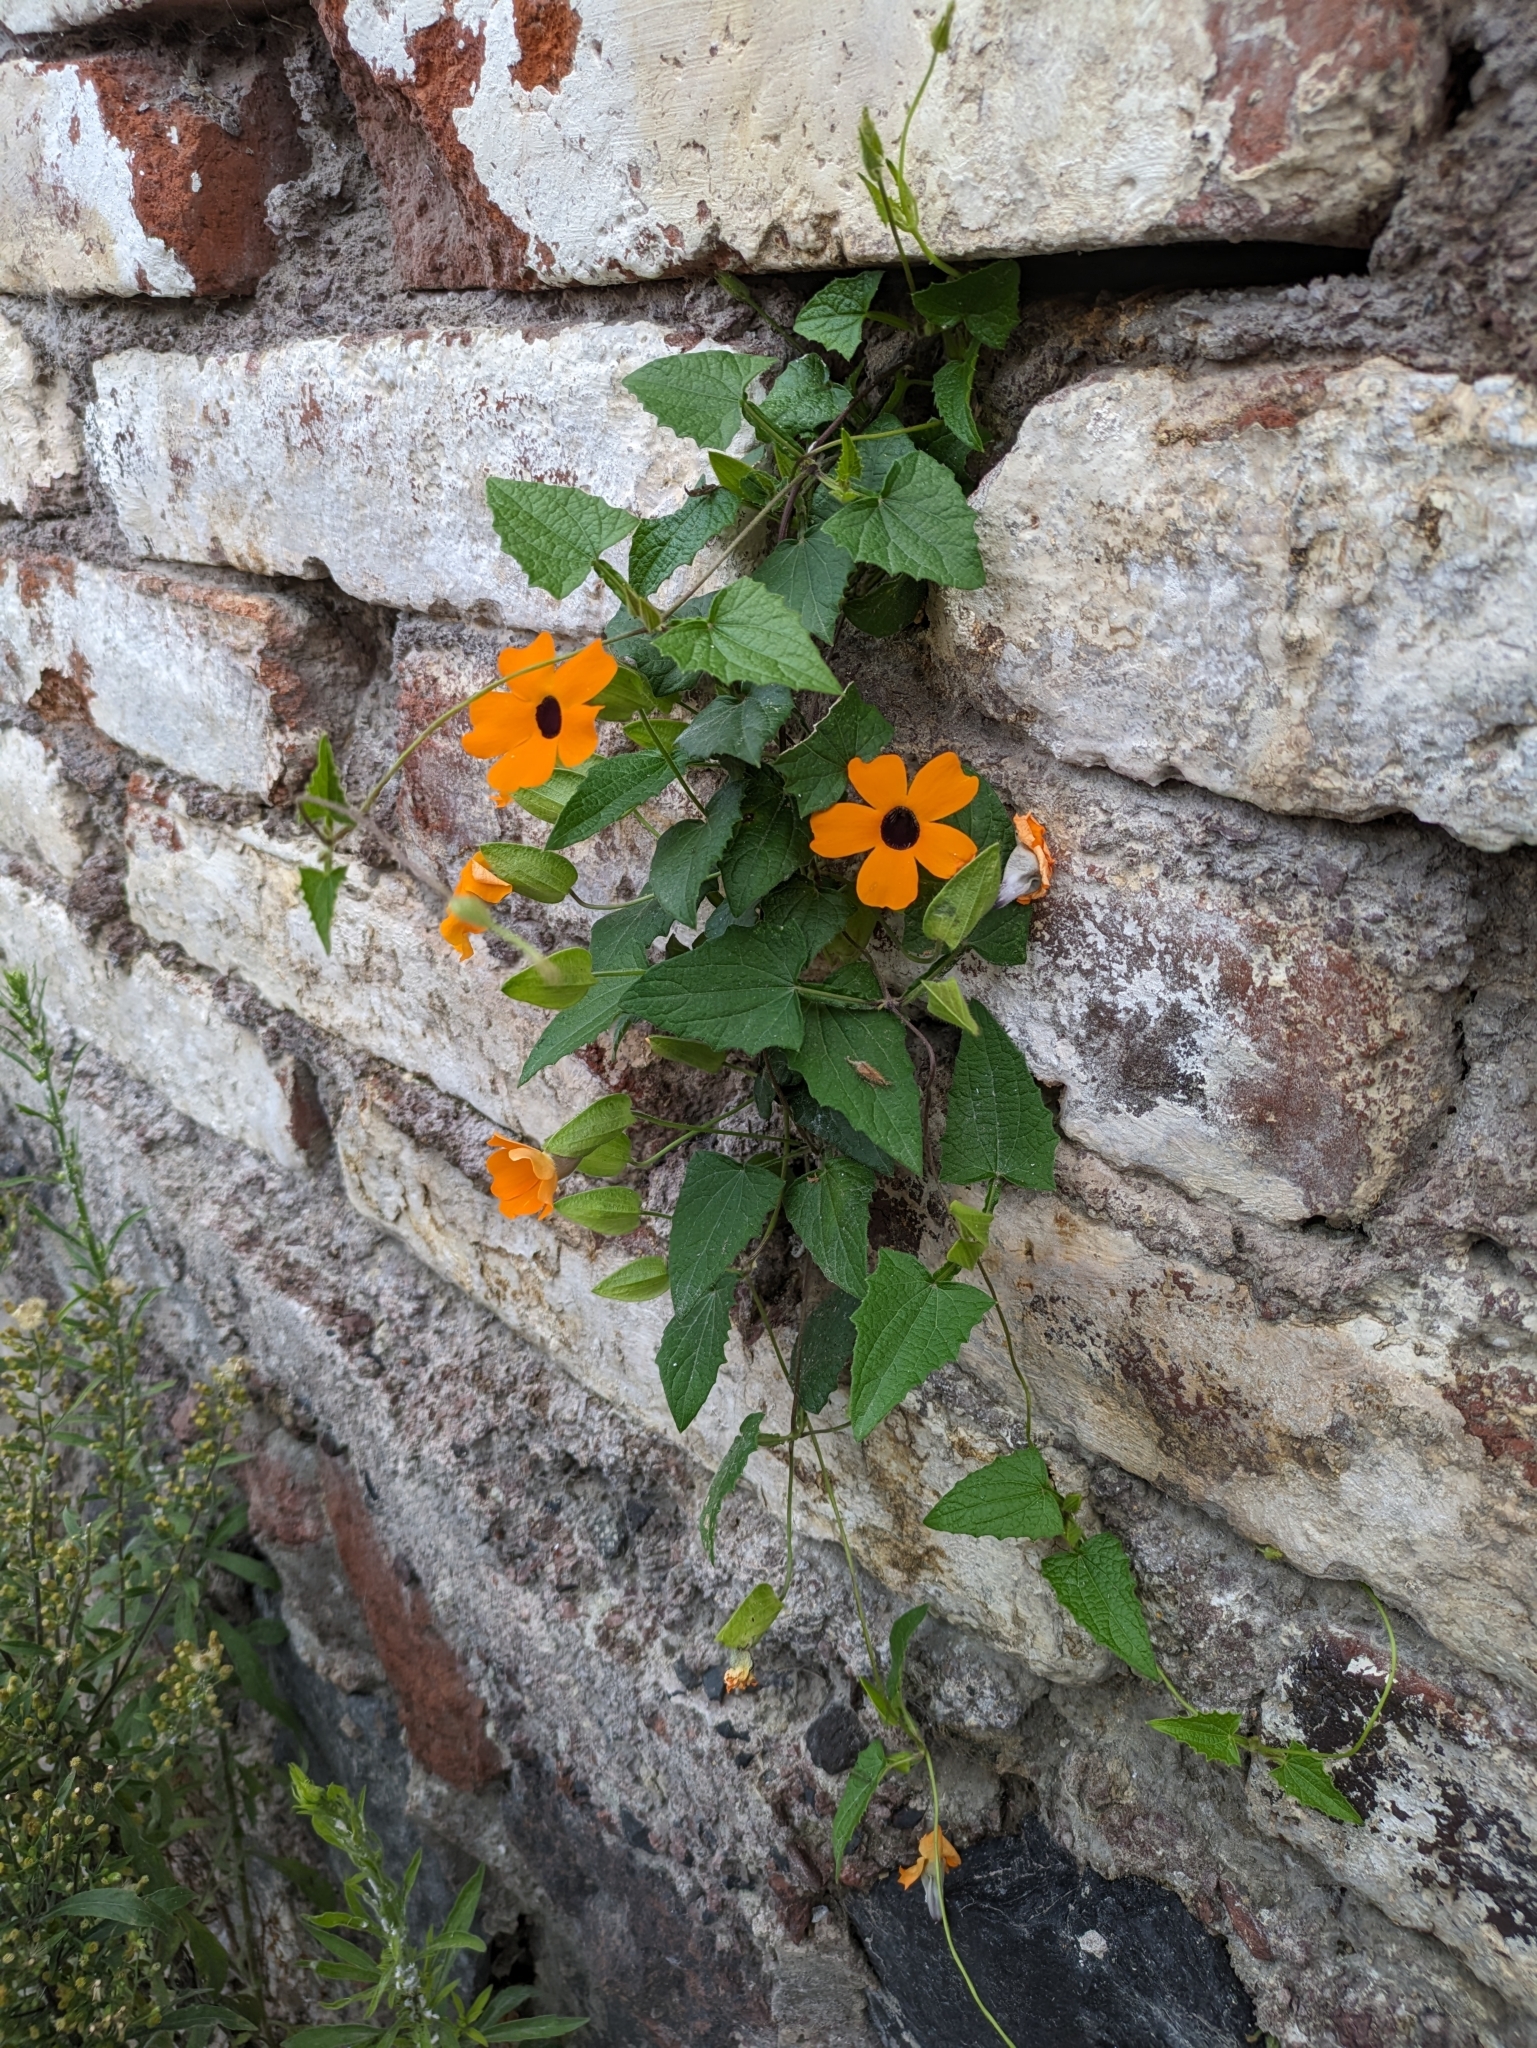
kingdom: Plantae
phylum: Tracheophyta
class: Magnoliopsida
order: Lamiales
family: Acanthaceae
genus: Thunbergia
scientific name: Thunbergia alata
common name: Blackeyed susan vine
